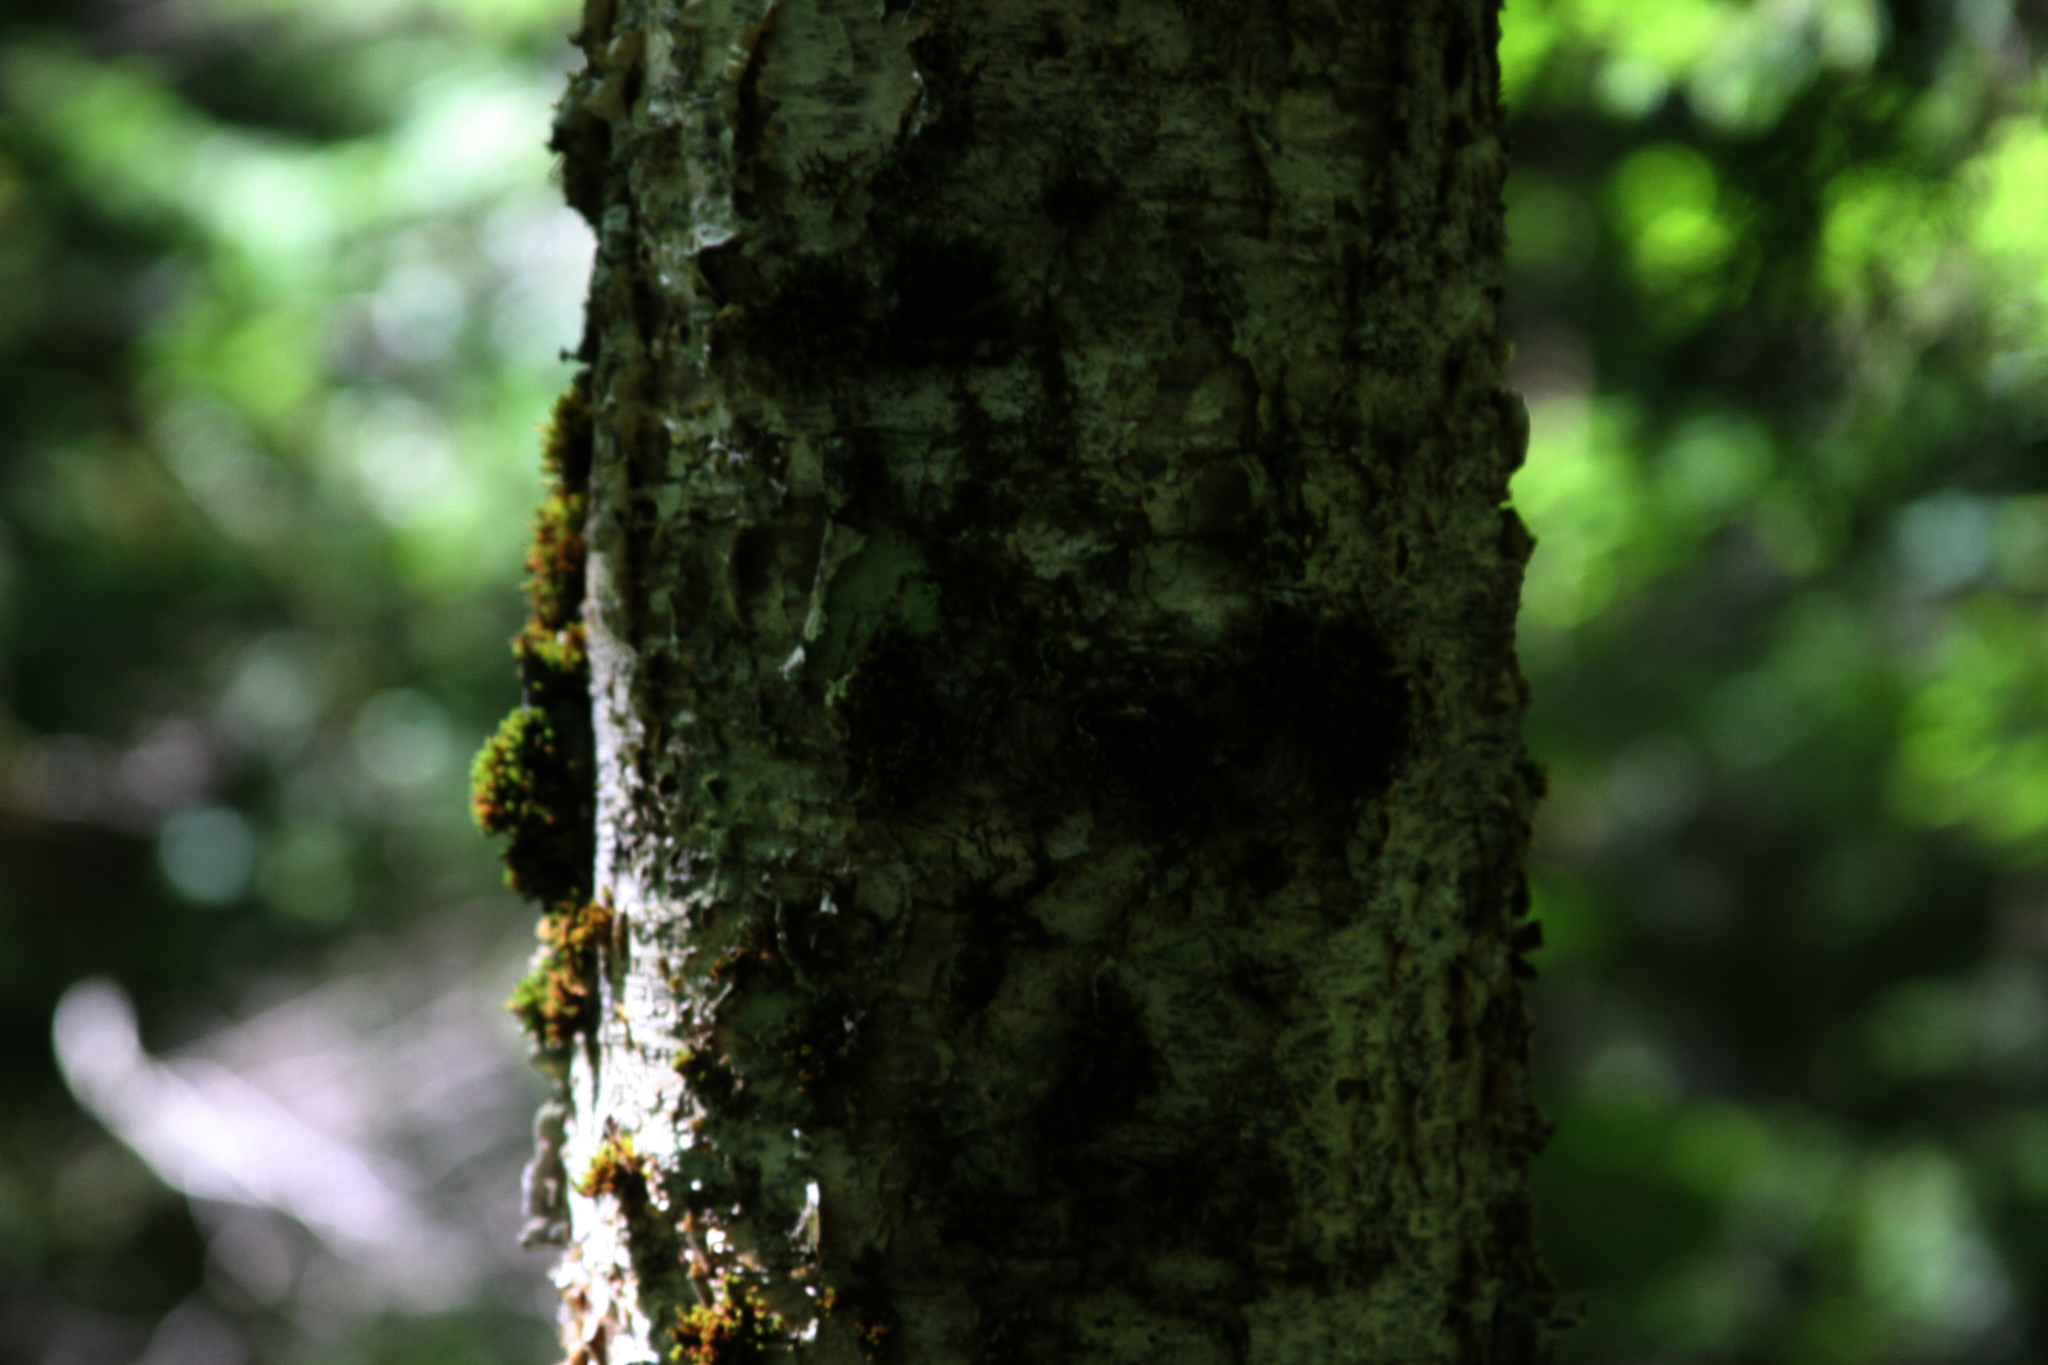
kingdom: Plantae
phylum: Bryophyta
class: Bryopsida
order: Orthotrichales
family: Orthotrichaceae
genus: Ulota
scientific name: Ulota crispa
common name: Crisped pincushion moss
